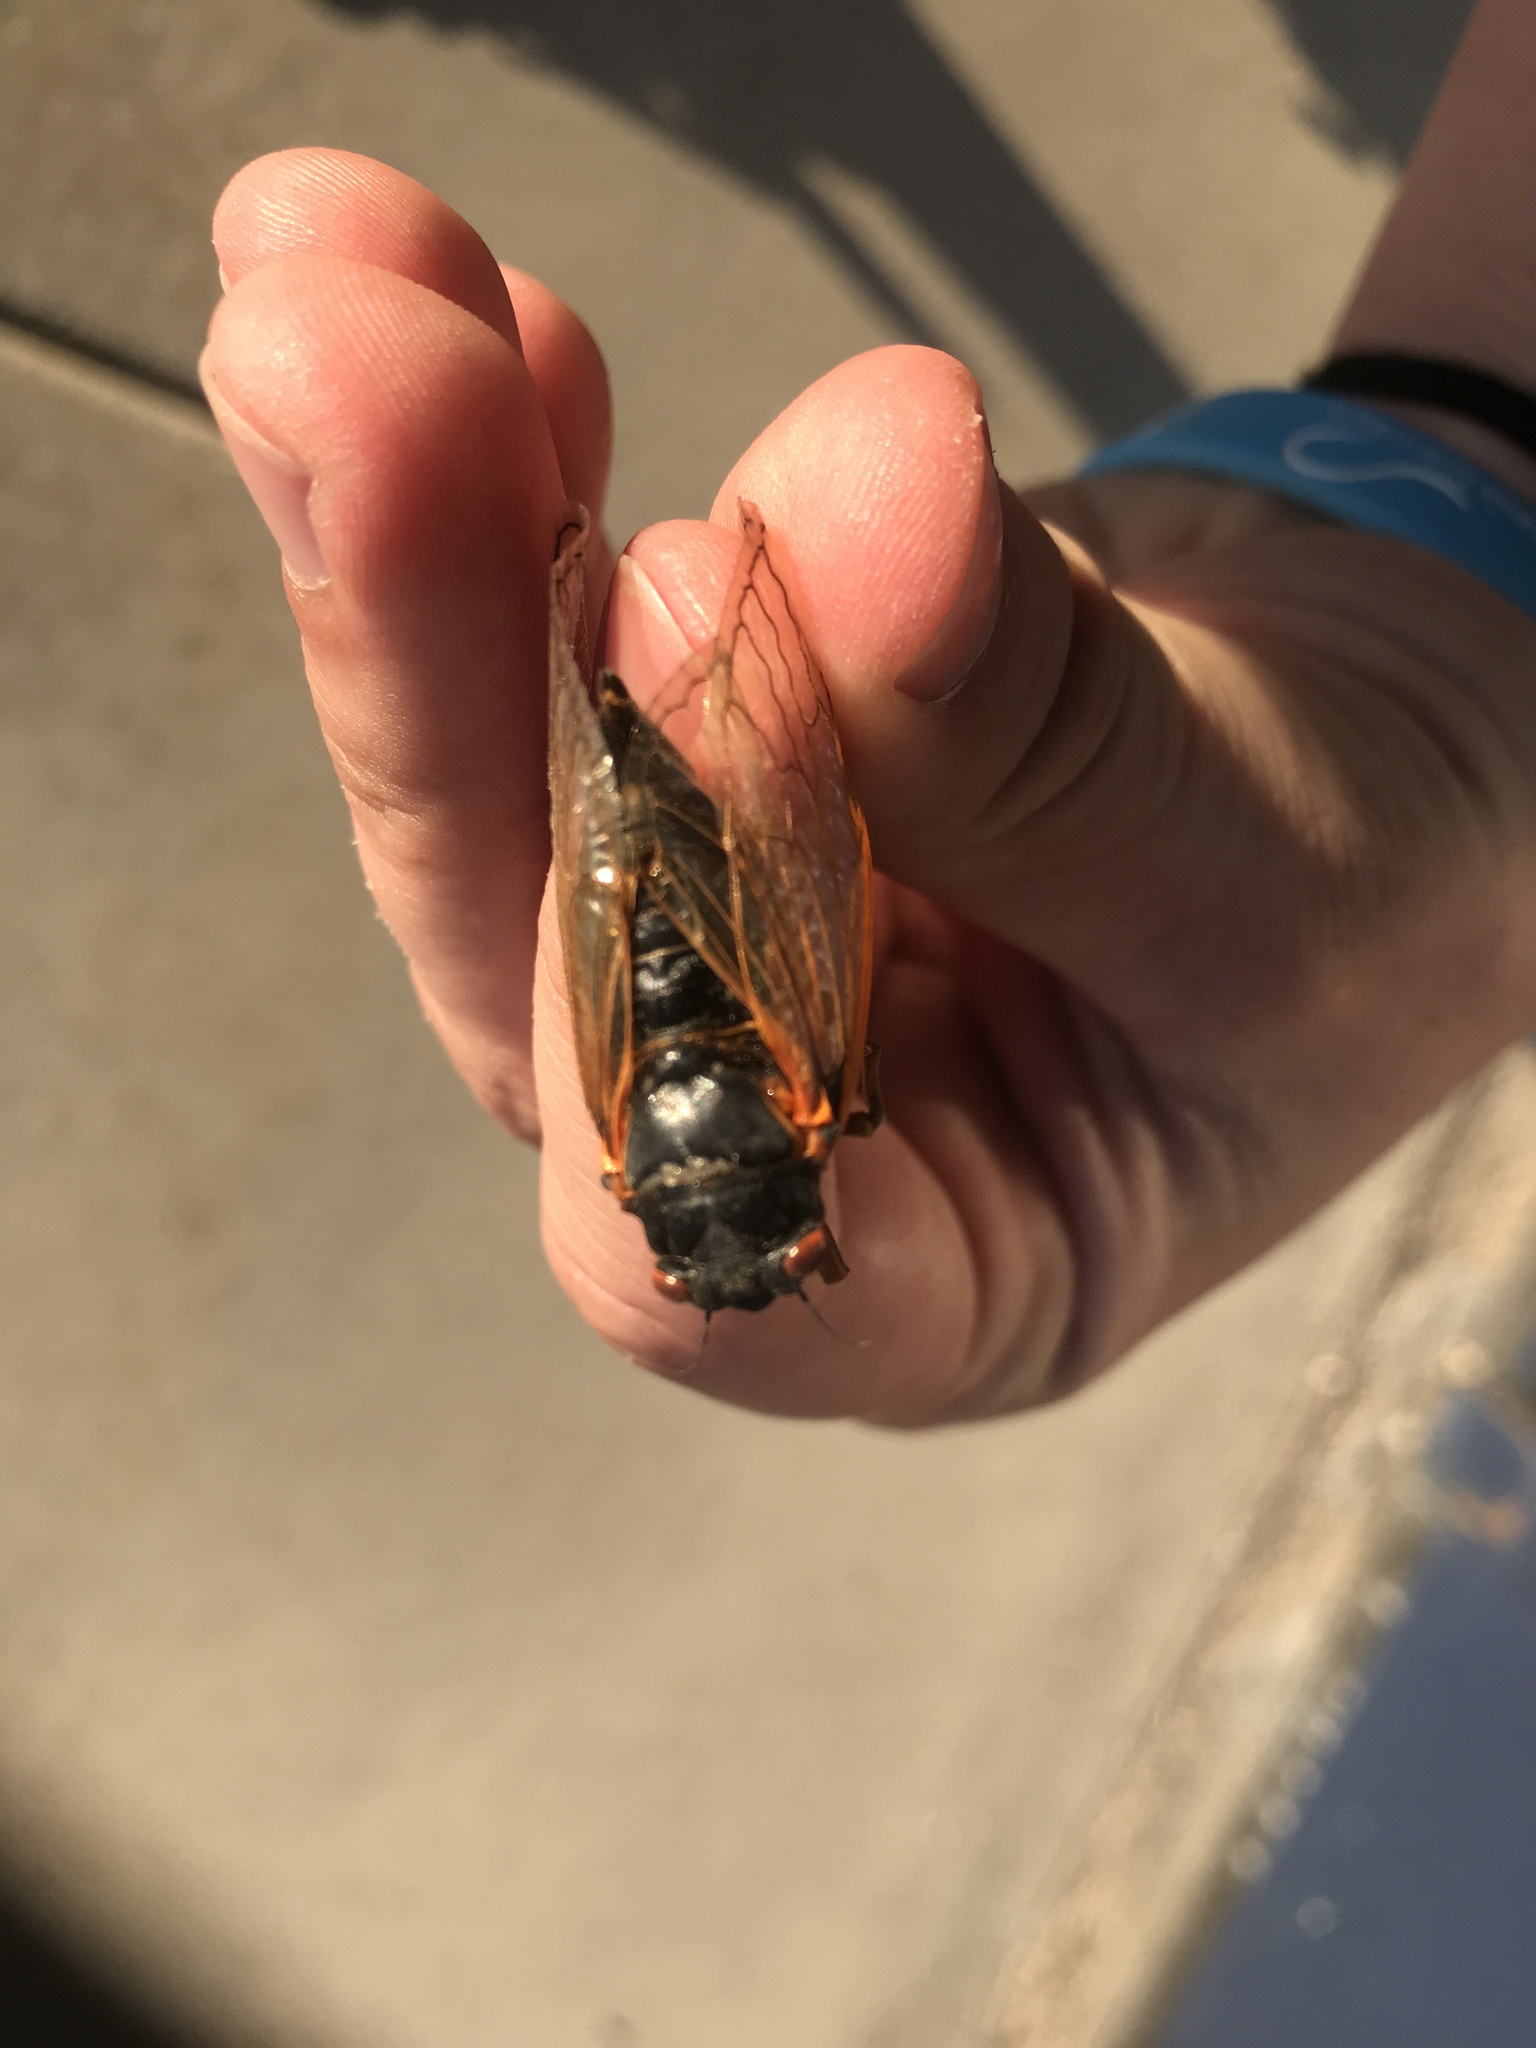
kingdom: Animalia
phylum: Arthropoda
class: Insecta
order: Hemiptera
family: Cicadidae
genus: Magicicada
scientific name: Magicicada septendecim
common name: Periodical cicada
